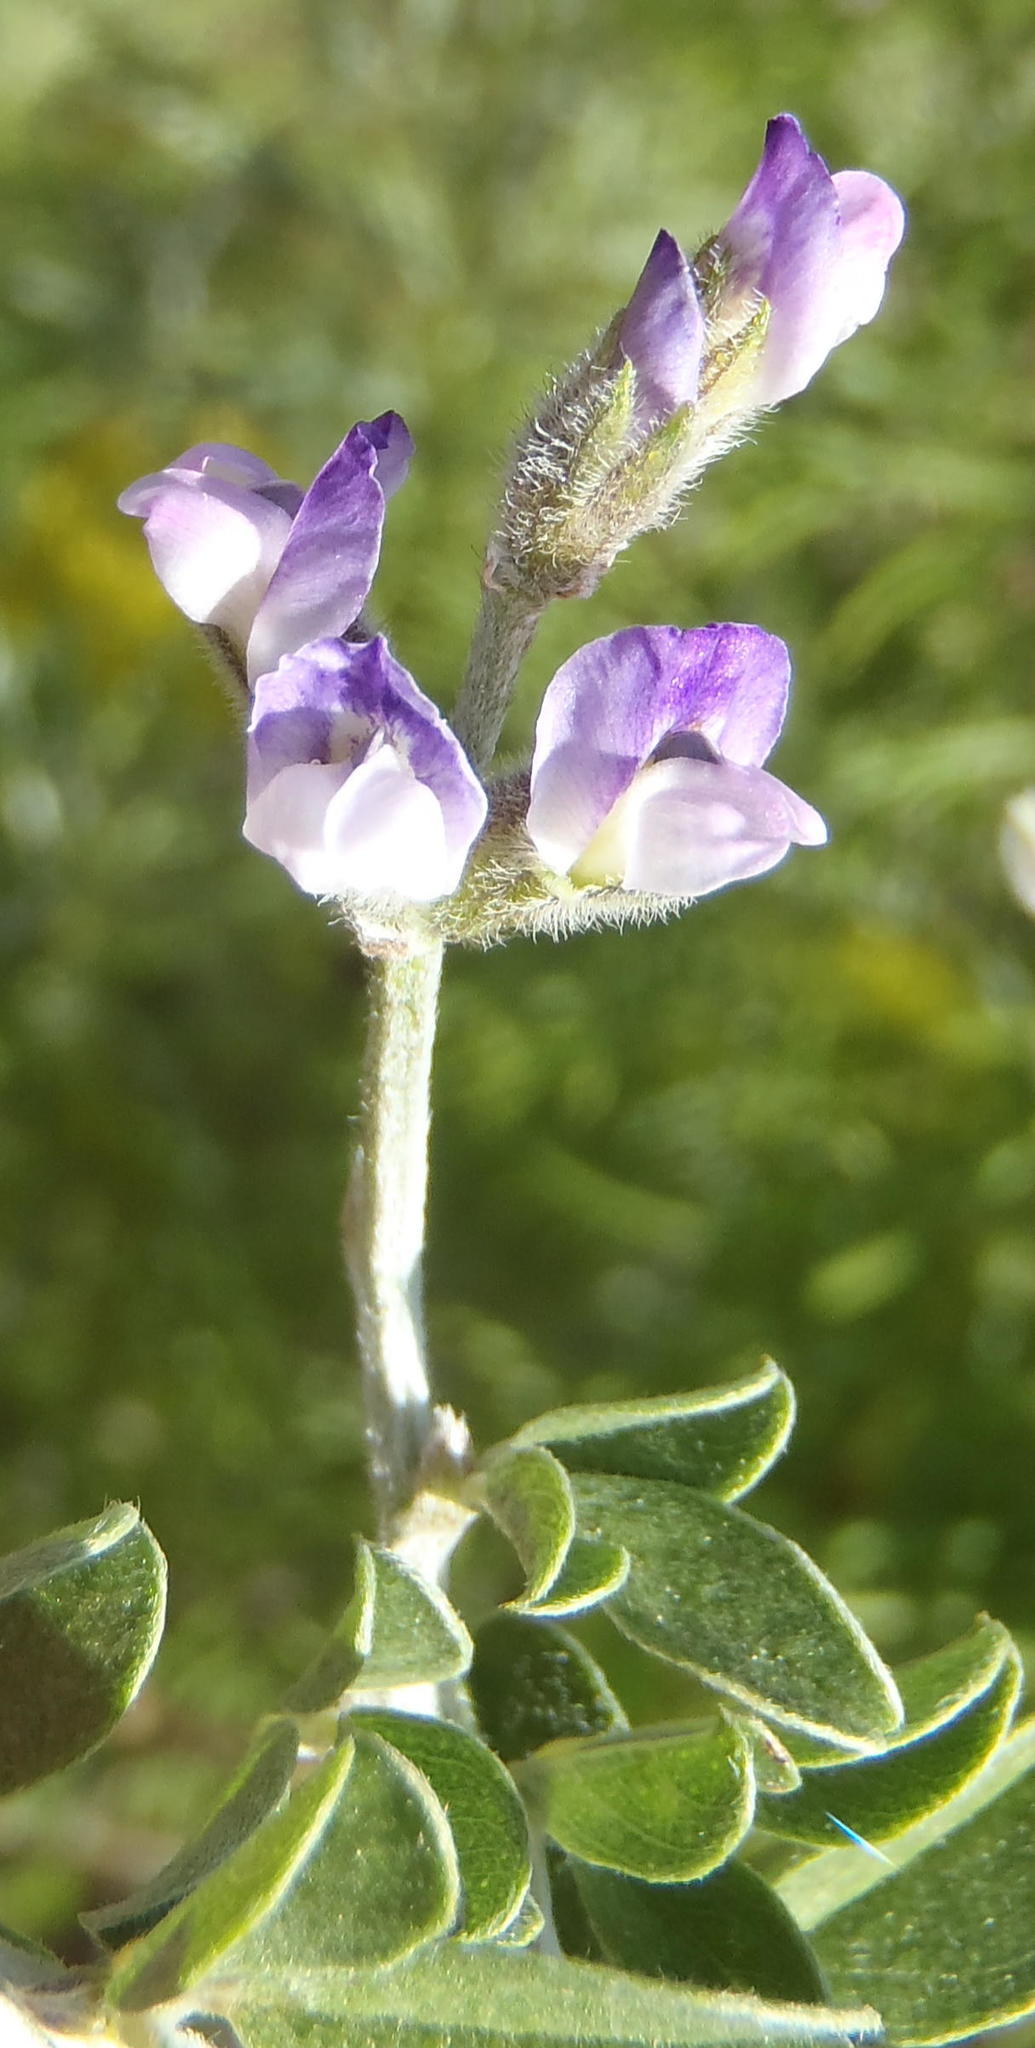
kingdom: Plantae
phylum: Tracheophyta
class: Magnoliopsida
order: Fabales
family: Fabaceae
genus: Psoralea
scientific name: Psoralea hirta
